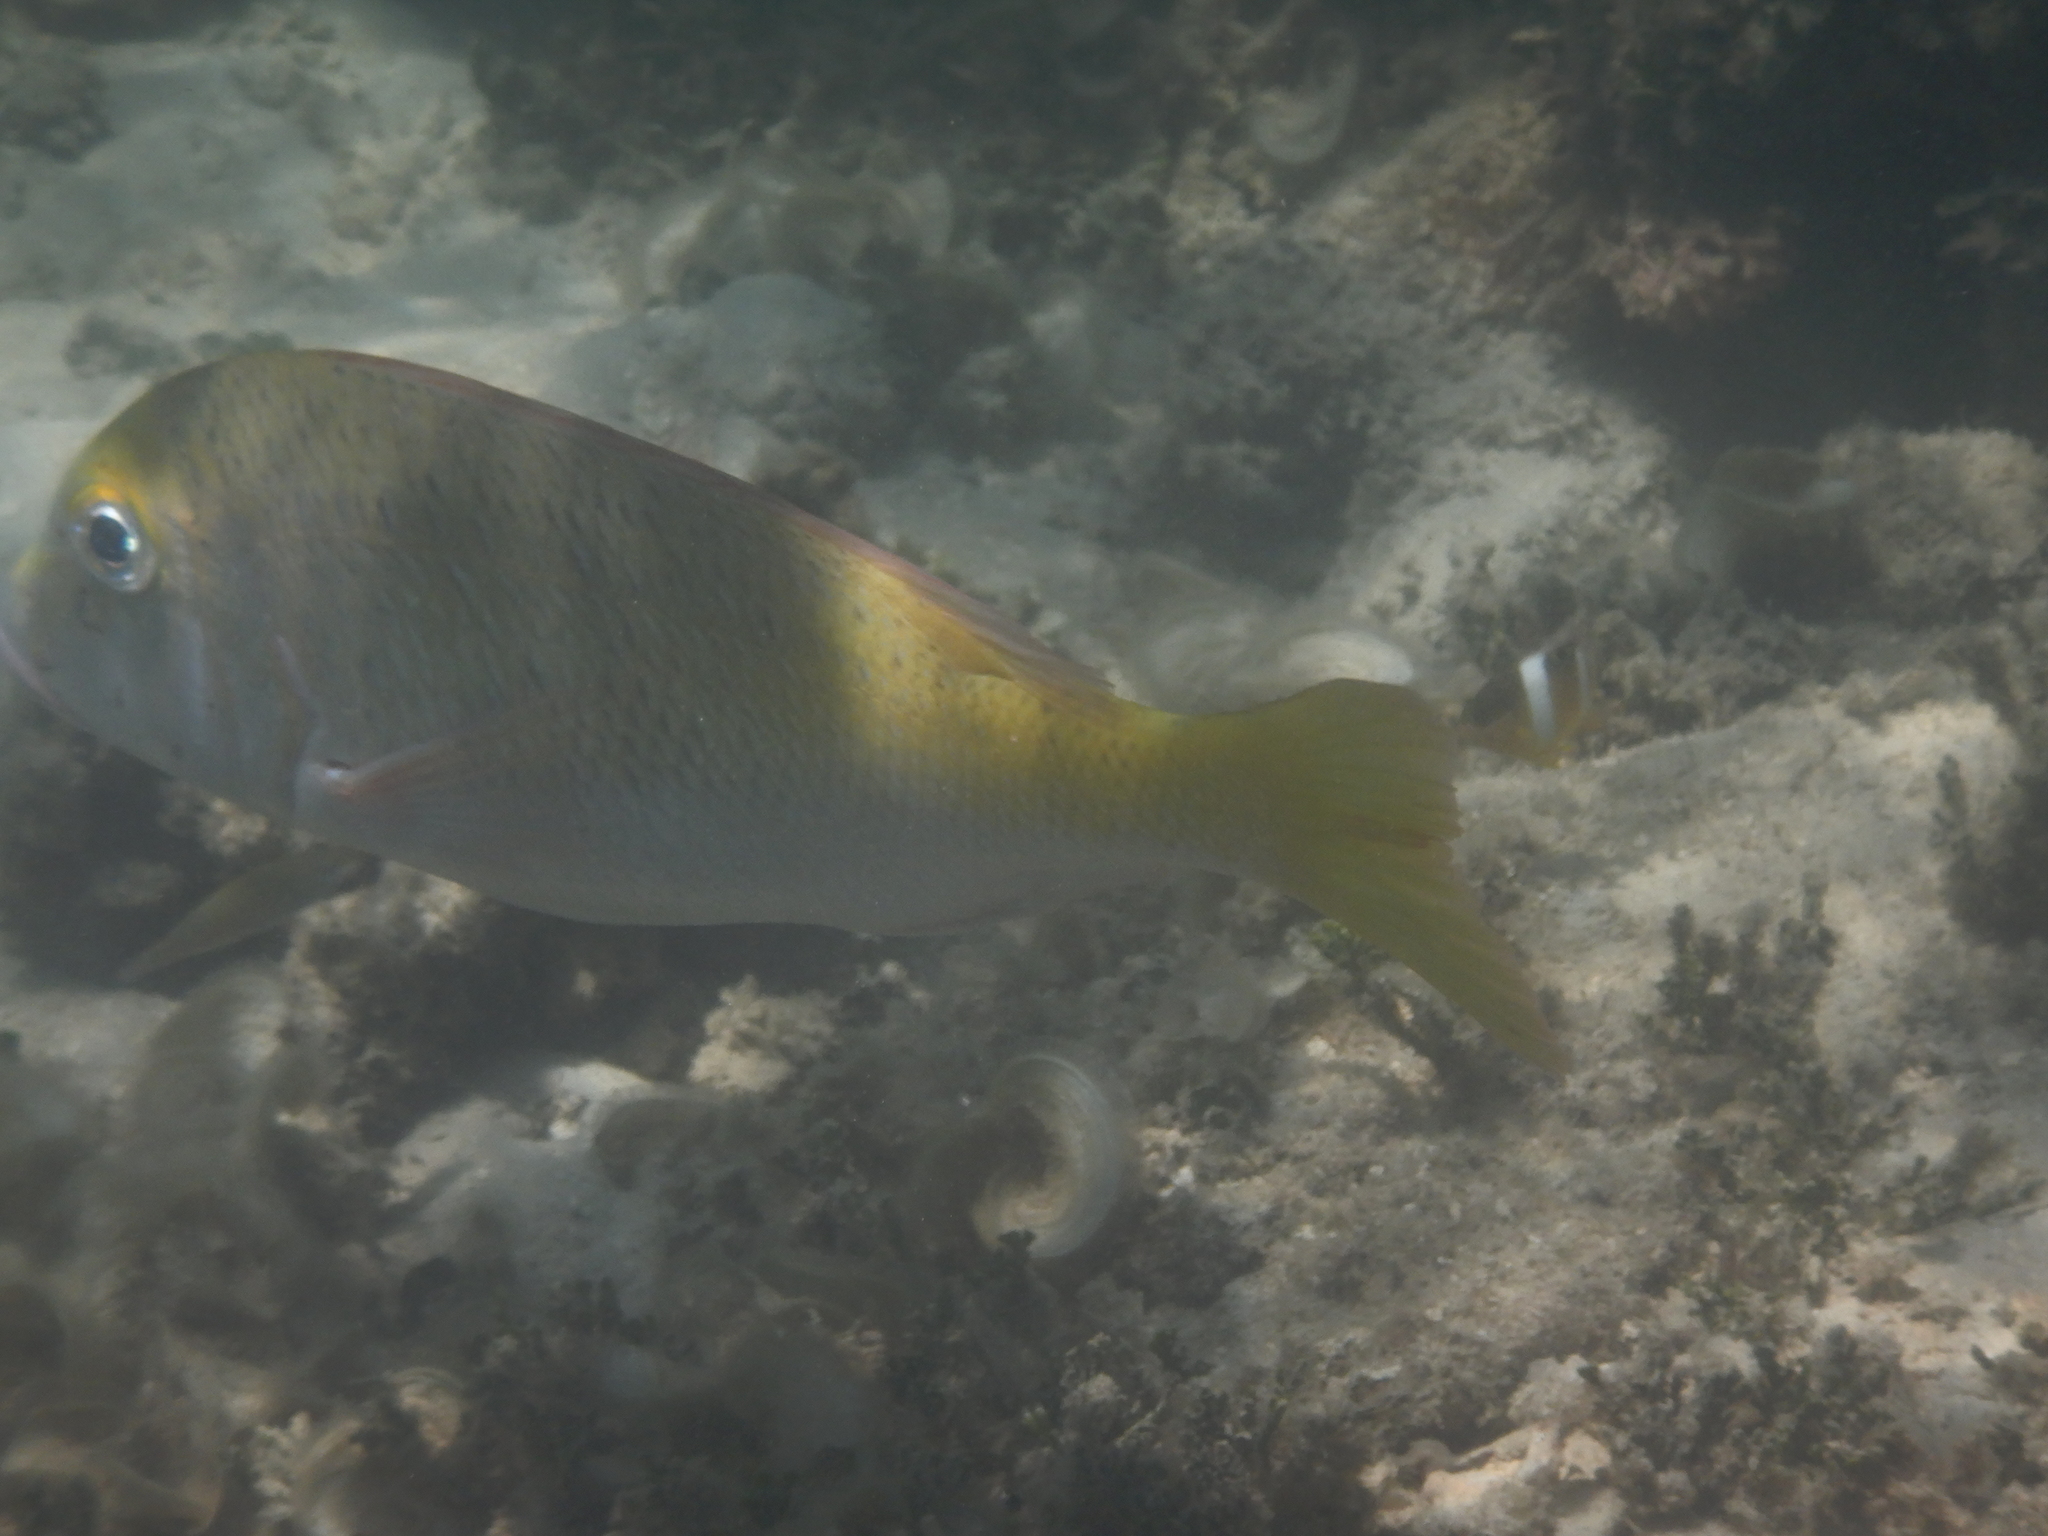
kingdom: Animalia
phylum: Chordata
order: Perciformes
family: Lethrinidae
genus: Lethrinus
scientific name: Lethrinus atkinsoni
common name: Pacific yellowtail emperor
